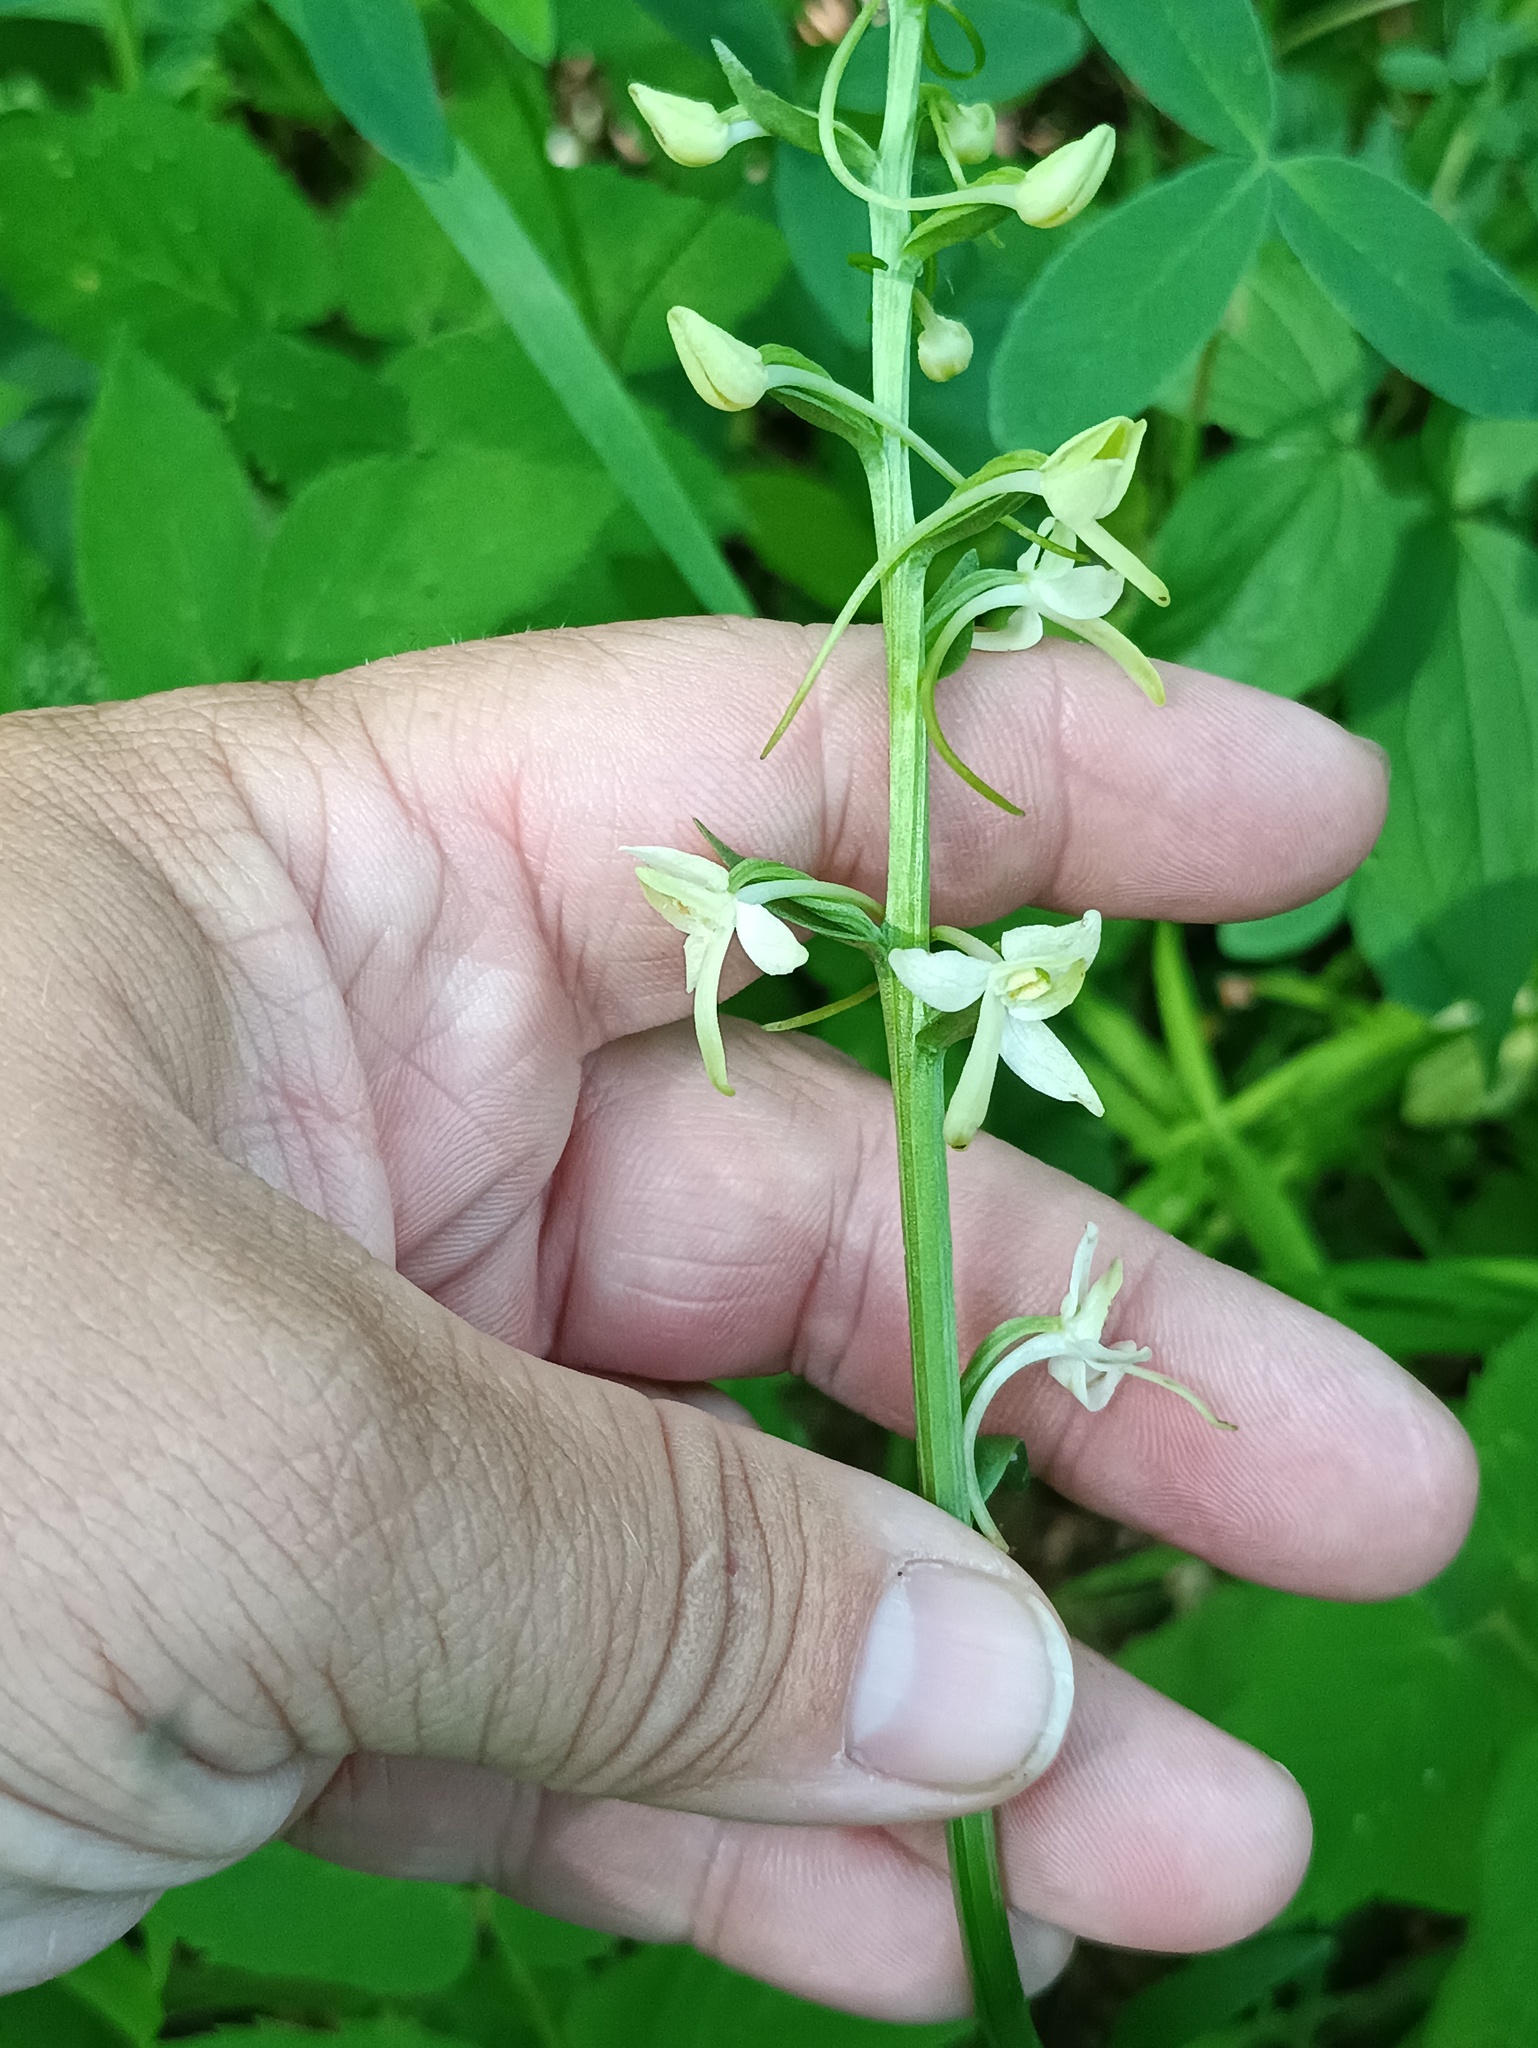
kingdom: Plantae
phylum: Tracheophyta
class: Liliopsida
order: Asparagales
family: Orchidaceae
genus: Platanthera
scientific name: Platanthera bifolia
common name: Lesser butterfly-orchid
